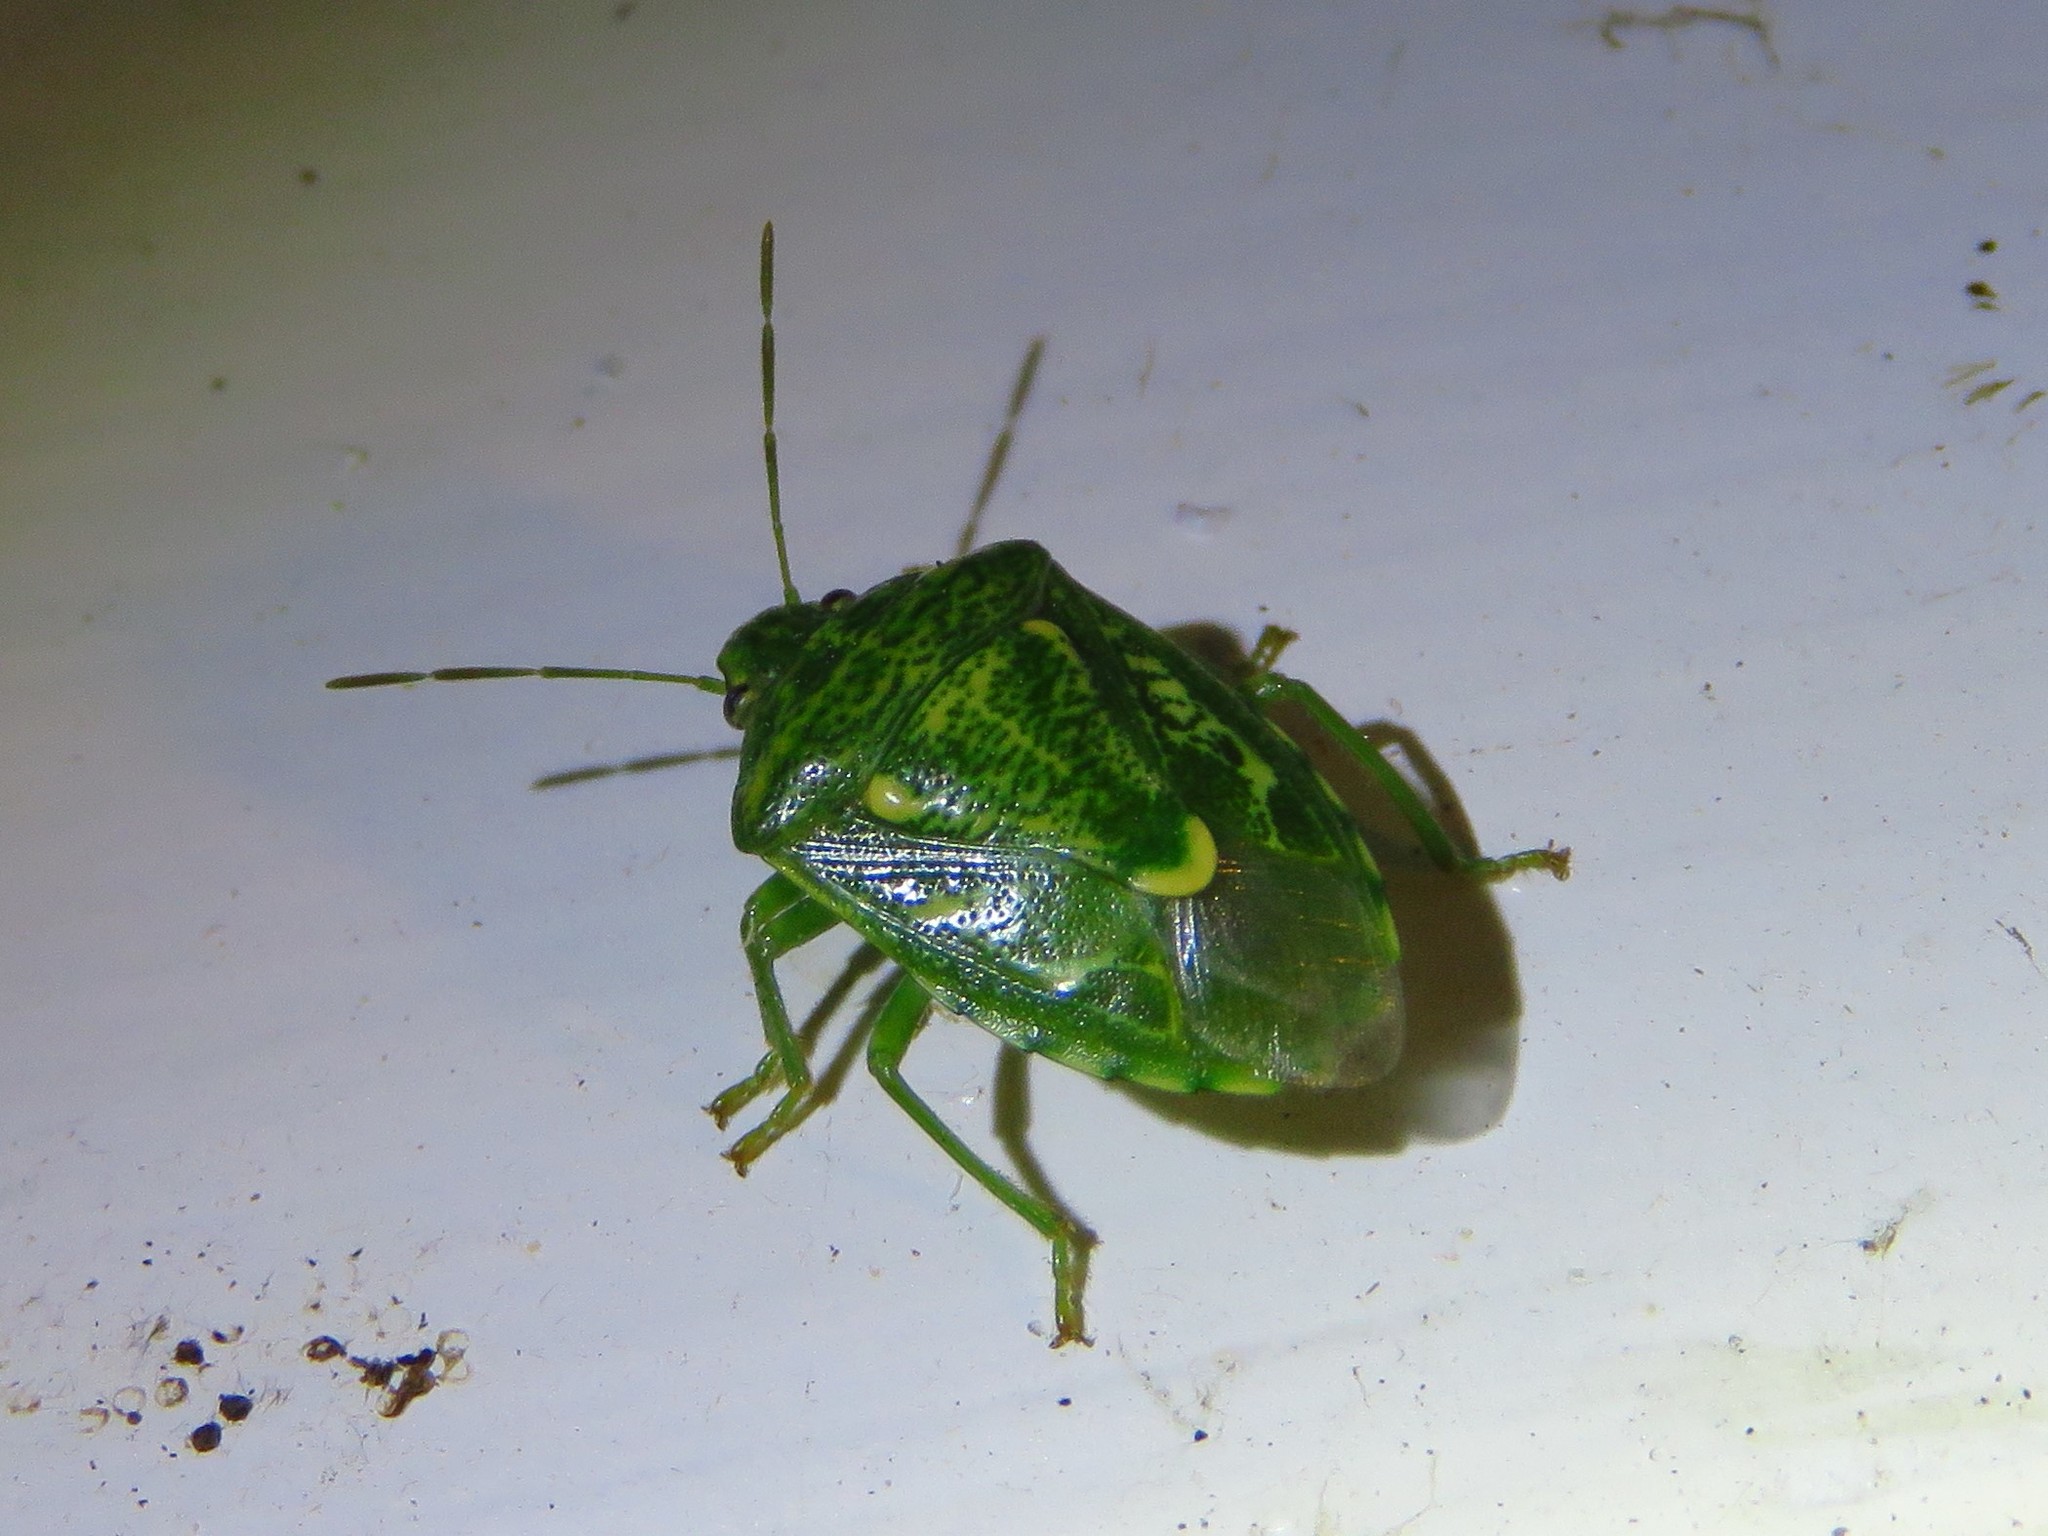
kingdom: Animalia
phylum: Arthropoda
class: Insecta
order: Hemiptera
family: Pentatomidae
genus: Banasa
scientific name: Banasa euchlora
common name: Cedar berry bug
